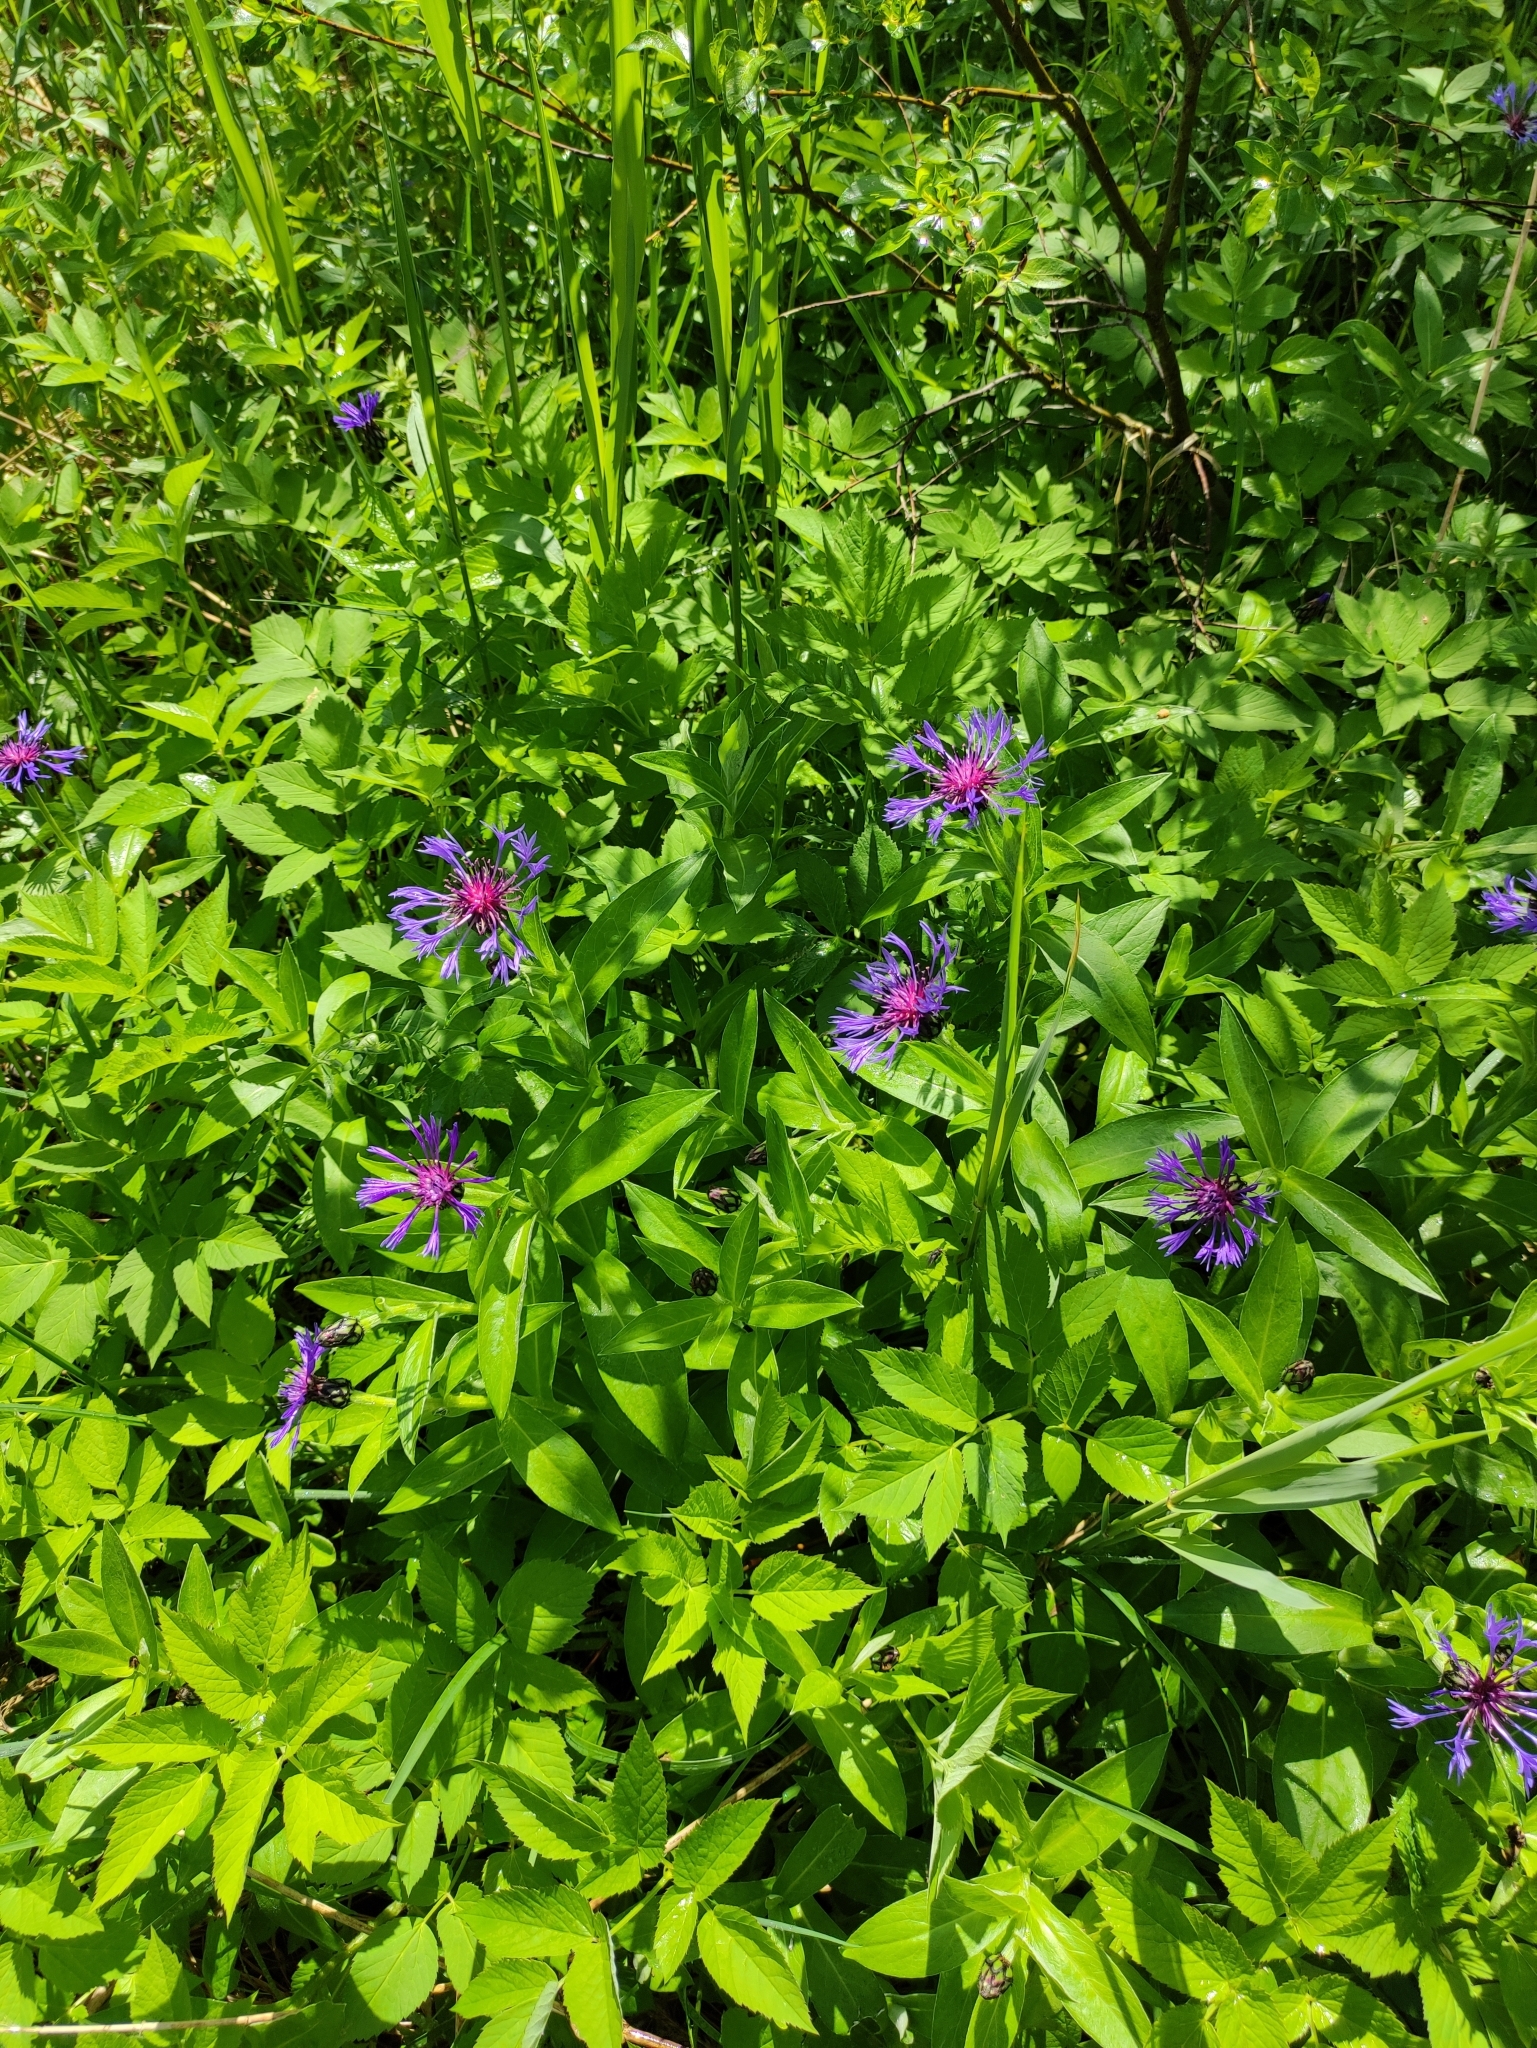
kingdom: Plantae
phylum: Tracheophyta
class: Magnoliopsida
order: Asterales
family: Asteraceae
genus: Centaurea
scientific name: Centaurea montana
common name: Perennial cornflower
